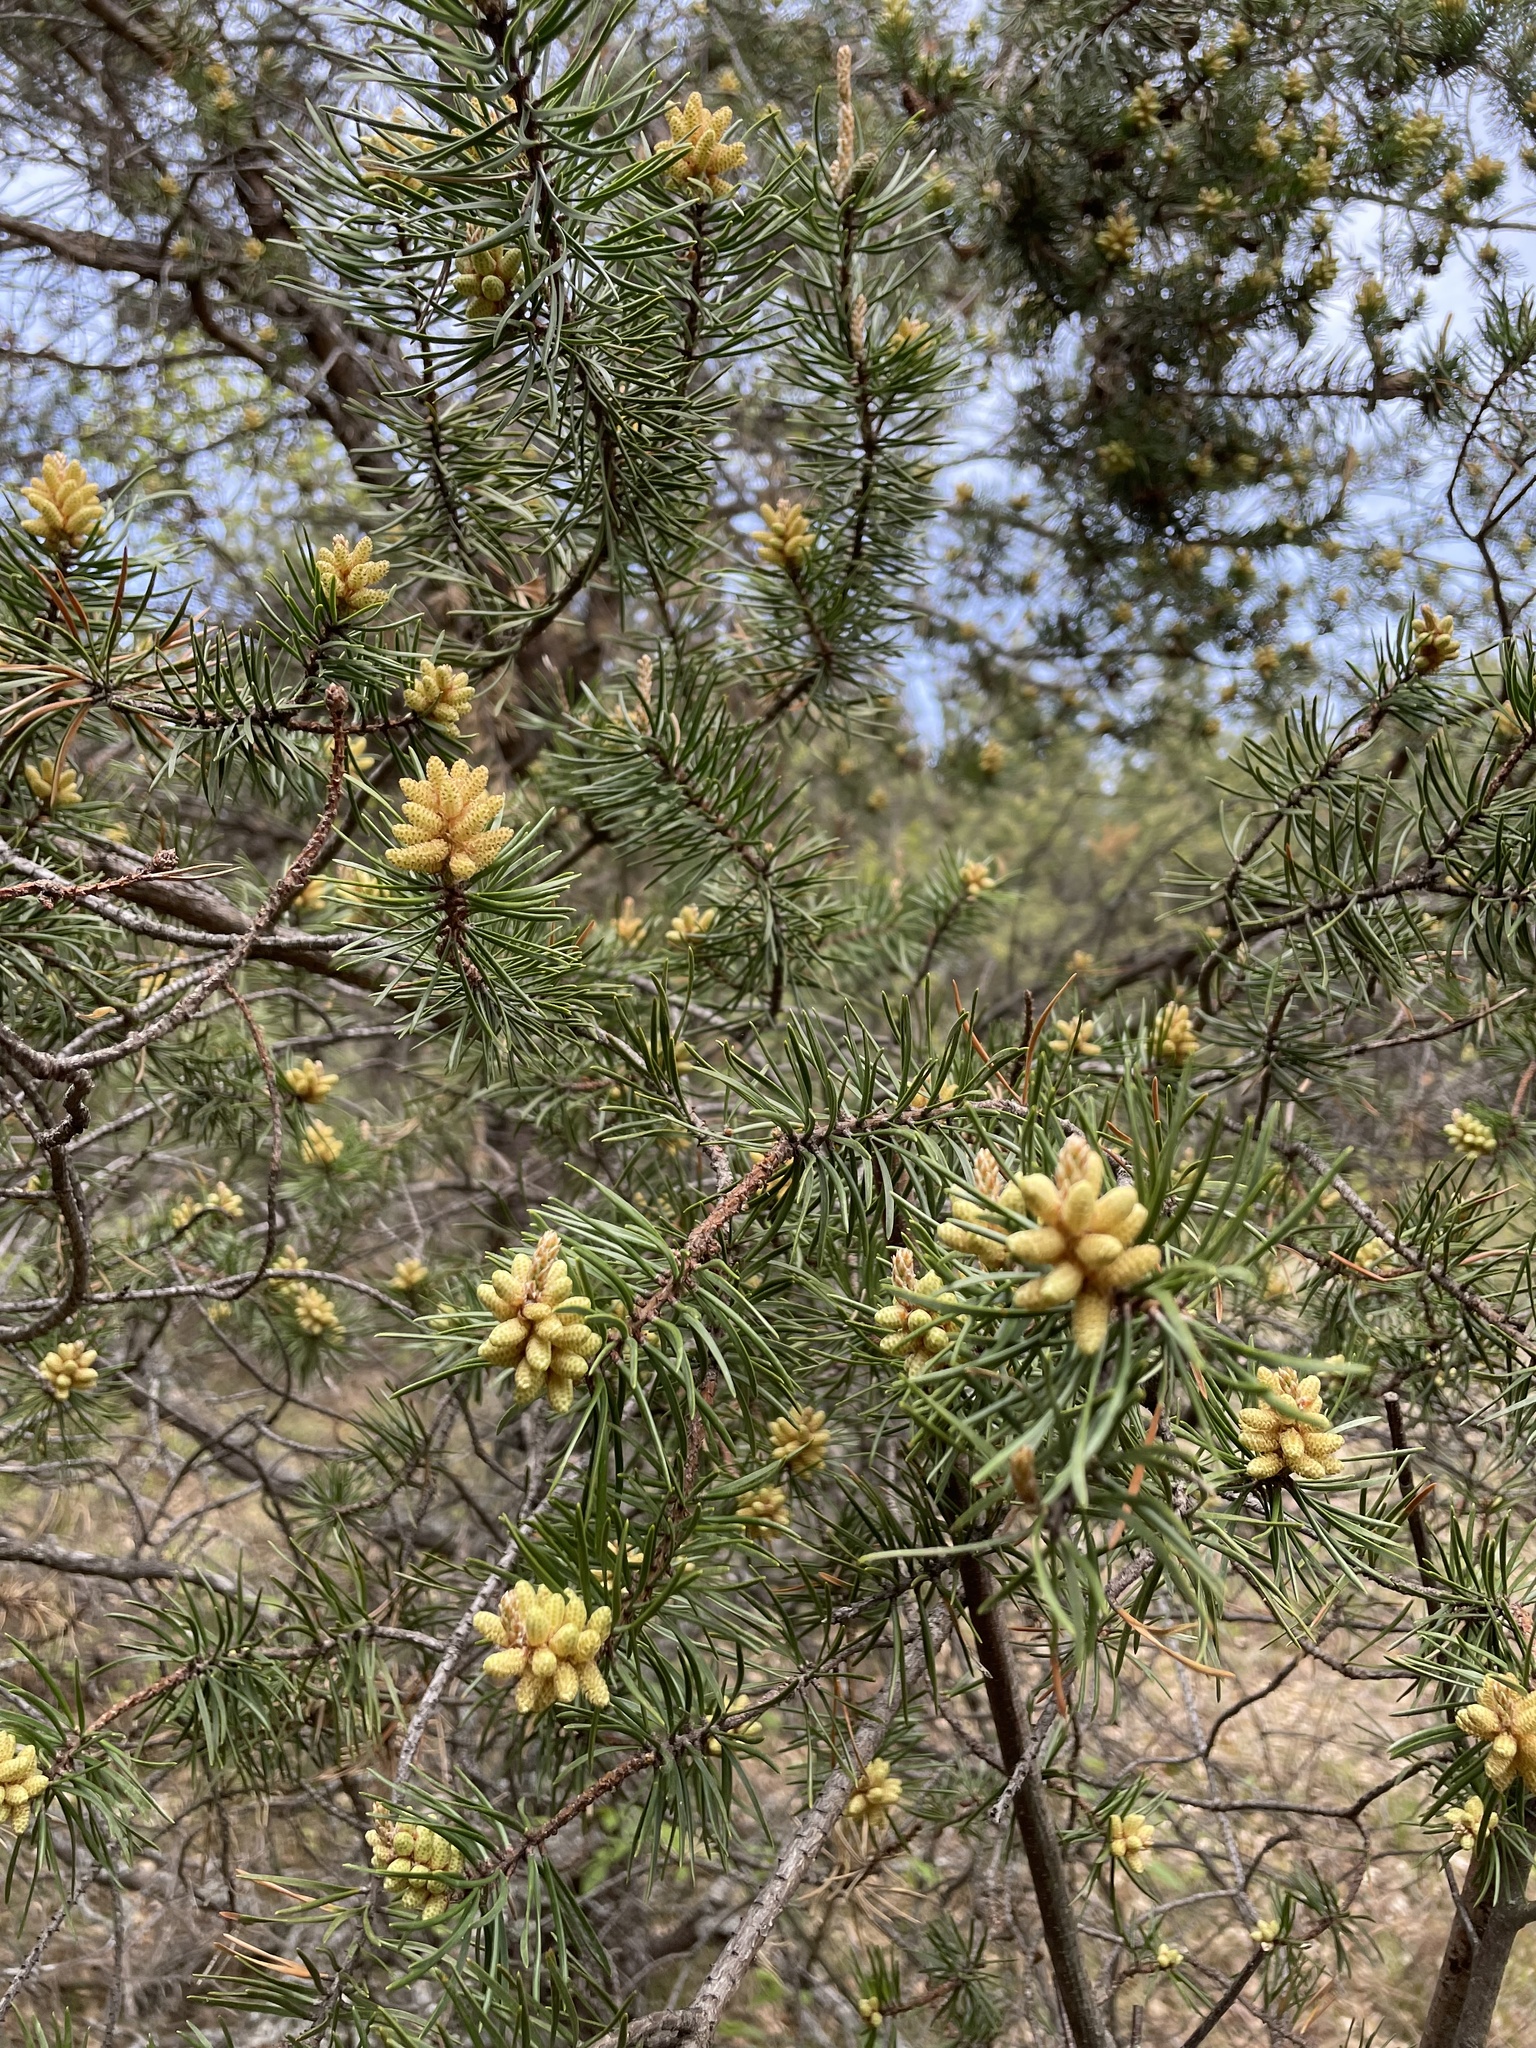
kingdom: Plantae
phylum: Tracheophyta
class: Pinopsida
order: Pinales
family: Pinaceae
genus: Pinus
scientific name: Pinus banksiana
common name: Jack pine
